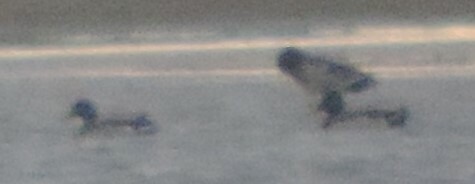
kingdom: Animalia
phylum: Chordata
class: Aves
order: Anseriformes
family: Anatidae
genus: Anas
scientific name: Anas platyrhynchos
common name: Mallard
